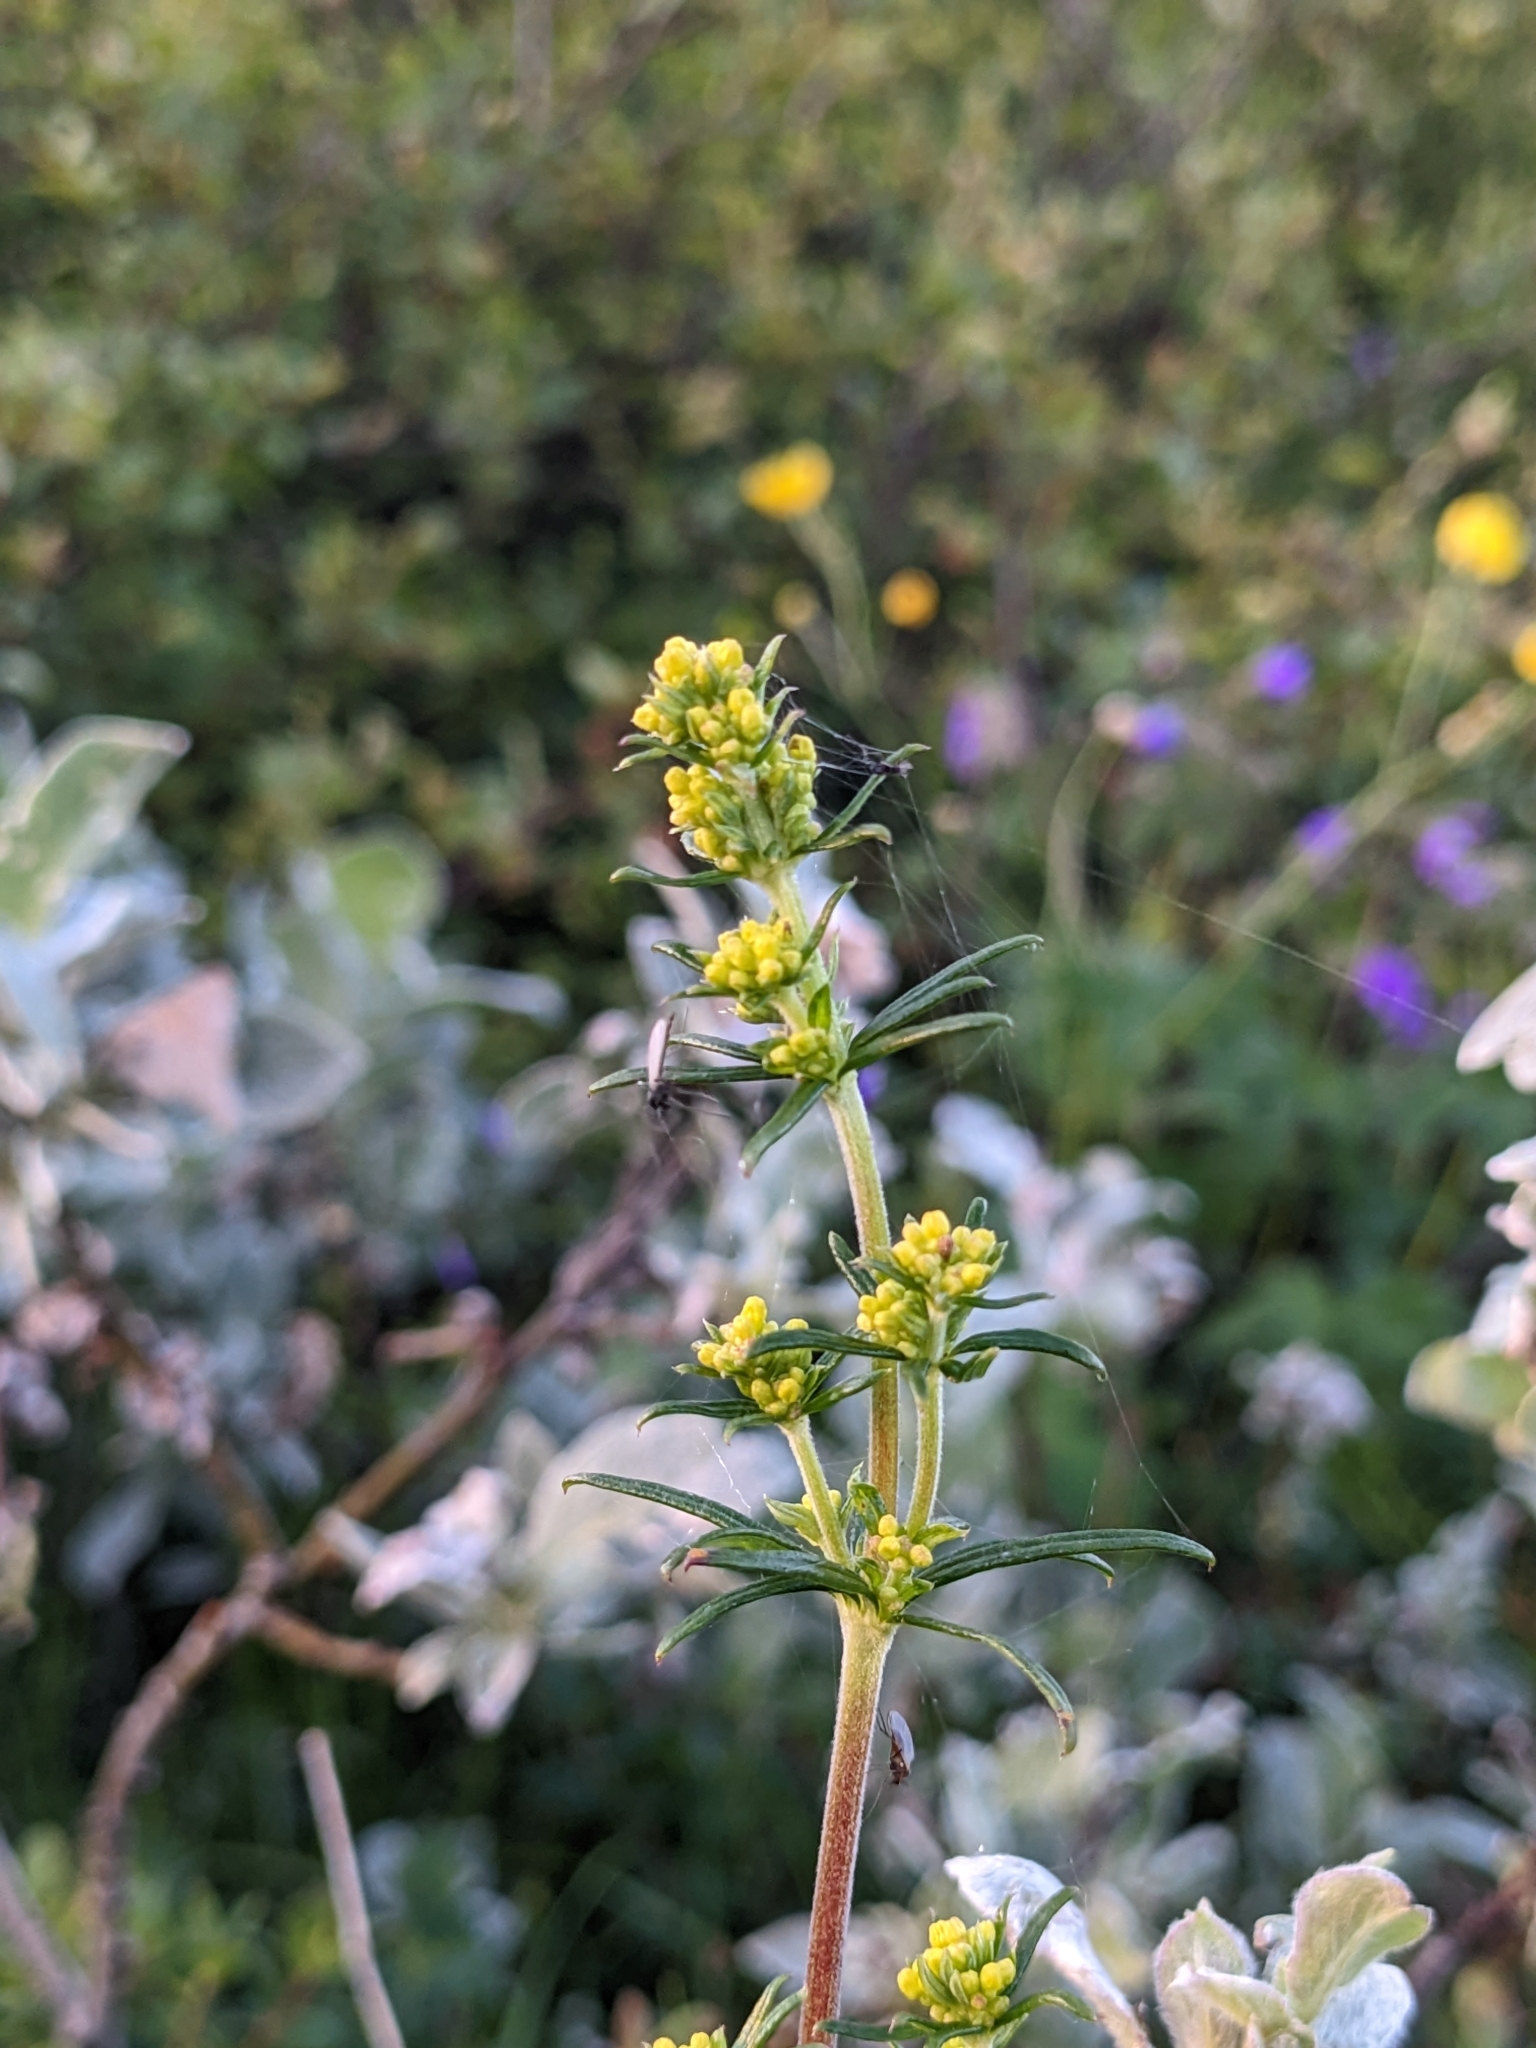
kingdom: Plantae
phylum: Tracheophyta
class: Magnoliopsida
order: Gentianales
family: Rubiaceae
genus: Galium
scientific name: Galium verum
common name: Lady's bedstraw
